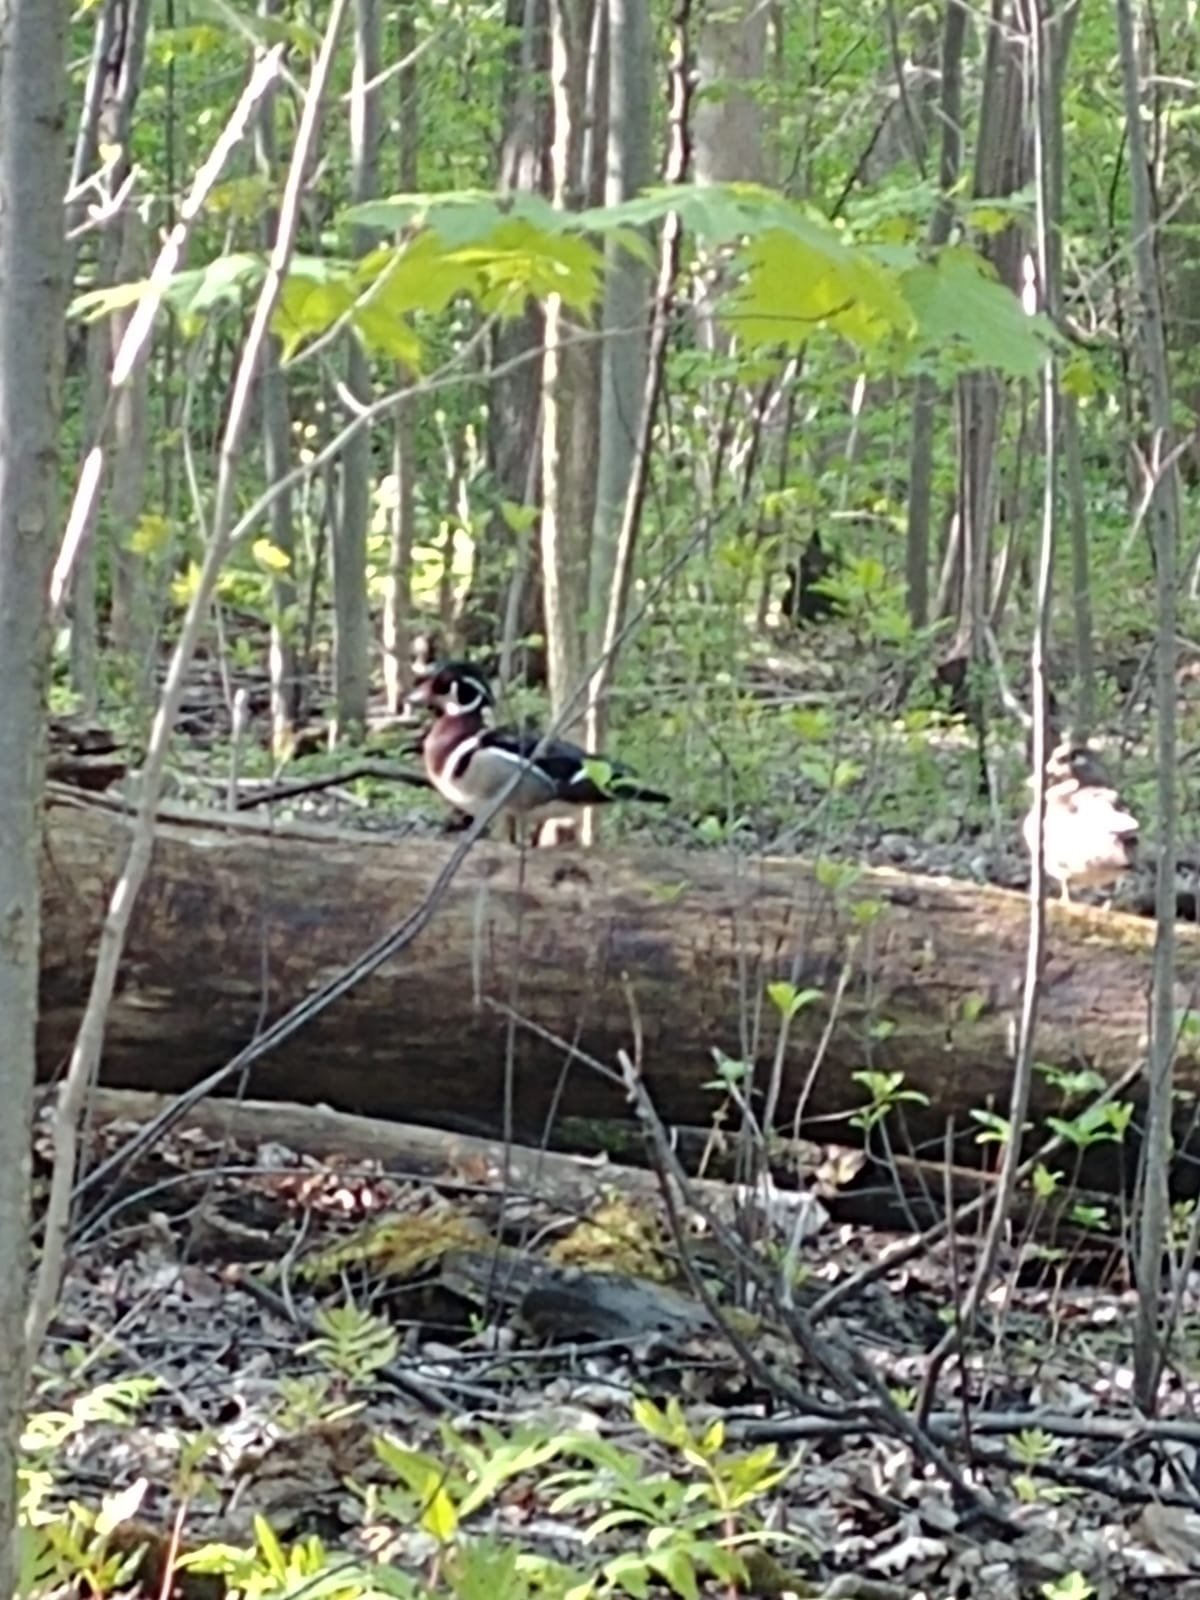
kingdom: Animalia
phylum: Chordata
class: Aves
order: Anseriformes
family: Anatidae
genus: Aix
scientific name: Aix sponsa
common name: Wood duck
